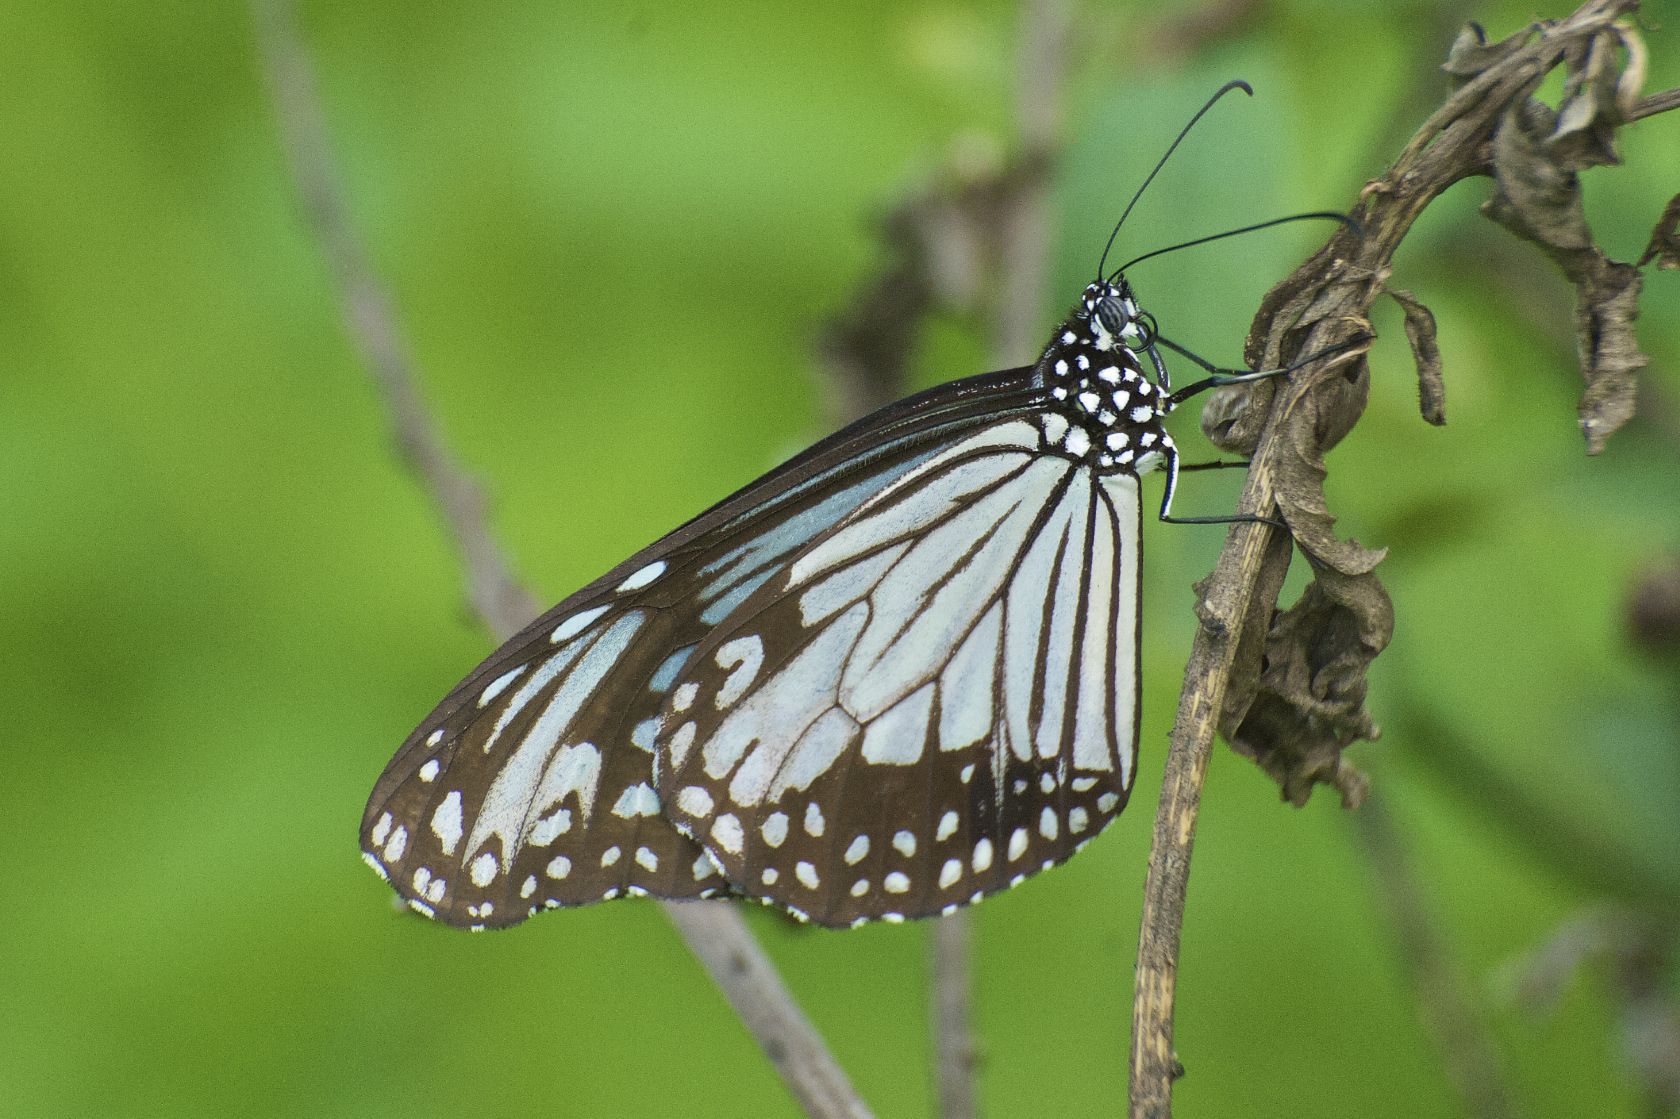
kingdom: Animalia
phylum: Arthropoda
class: Insecta
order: Lepidoptera
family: Nymphalidae
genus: Parantica
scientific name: Parantica aglea
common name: Glassy tiger
